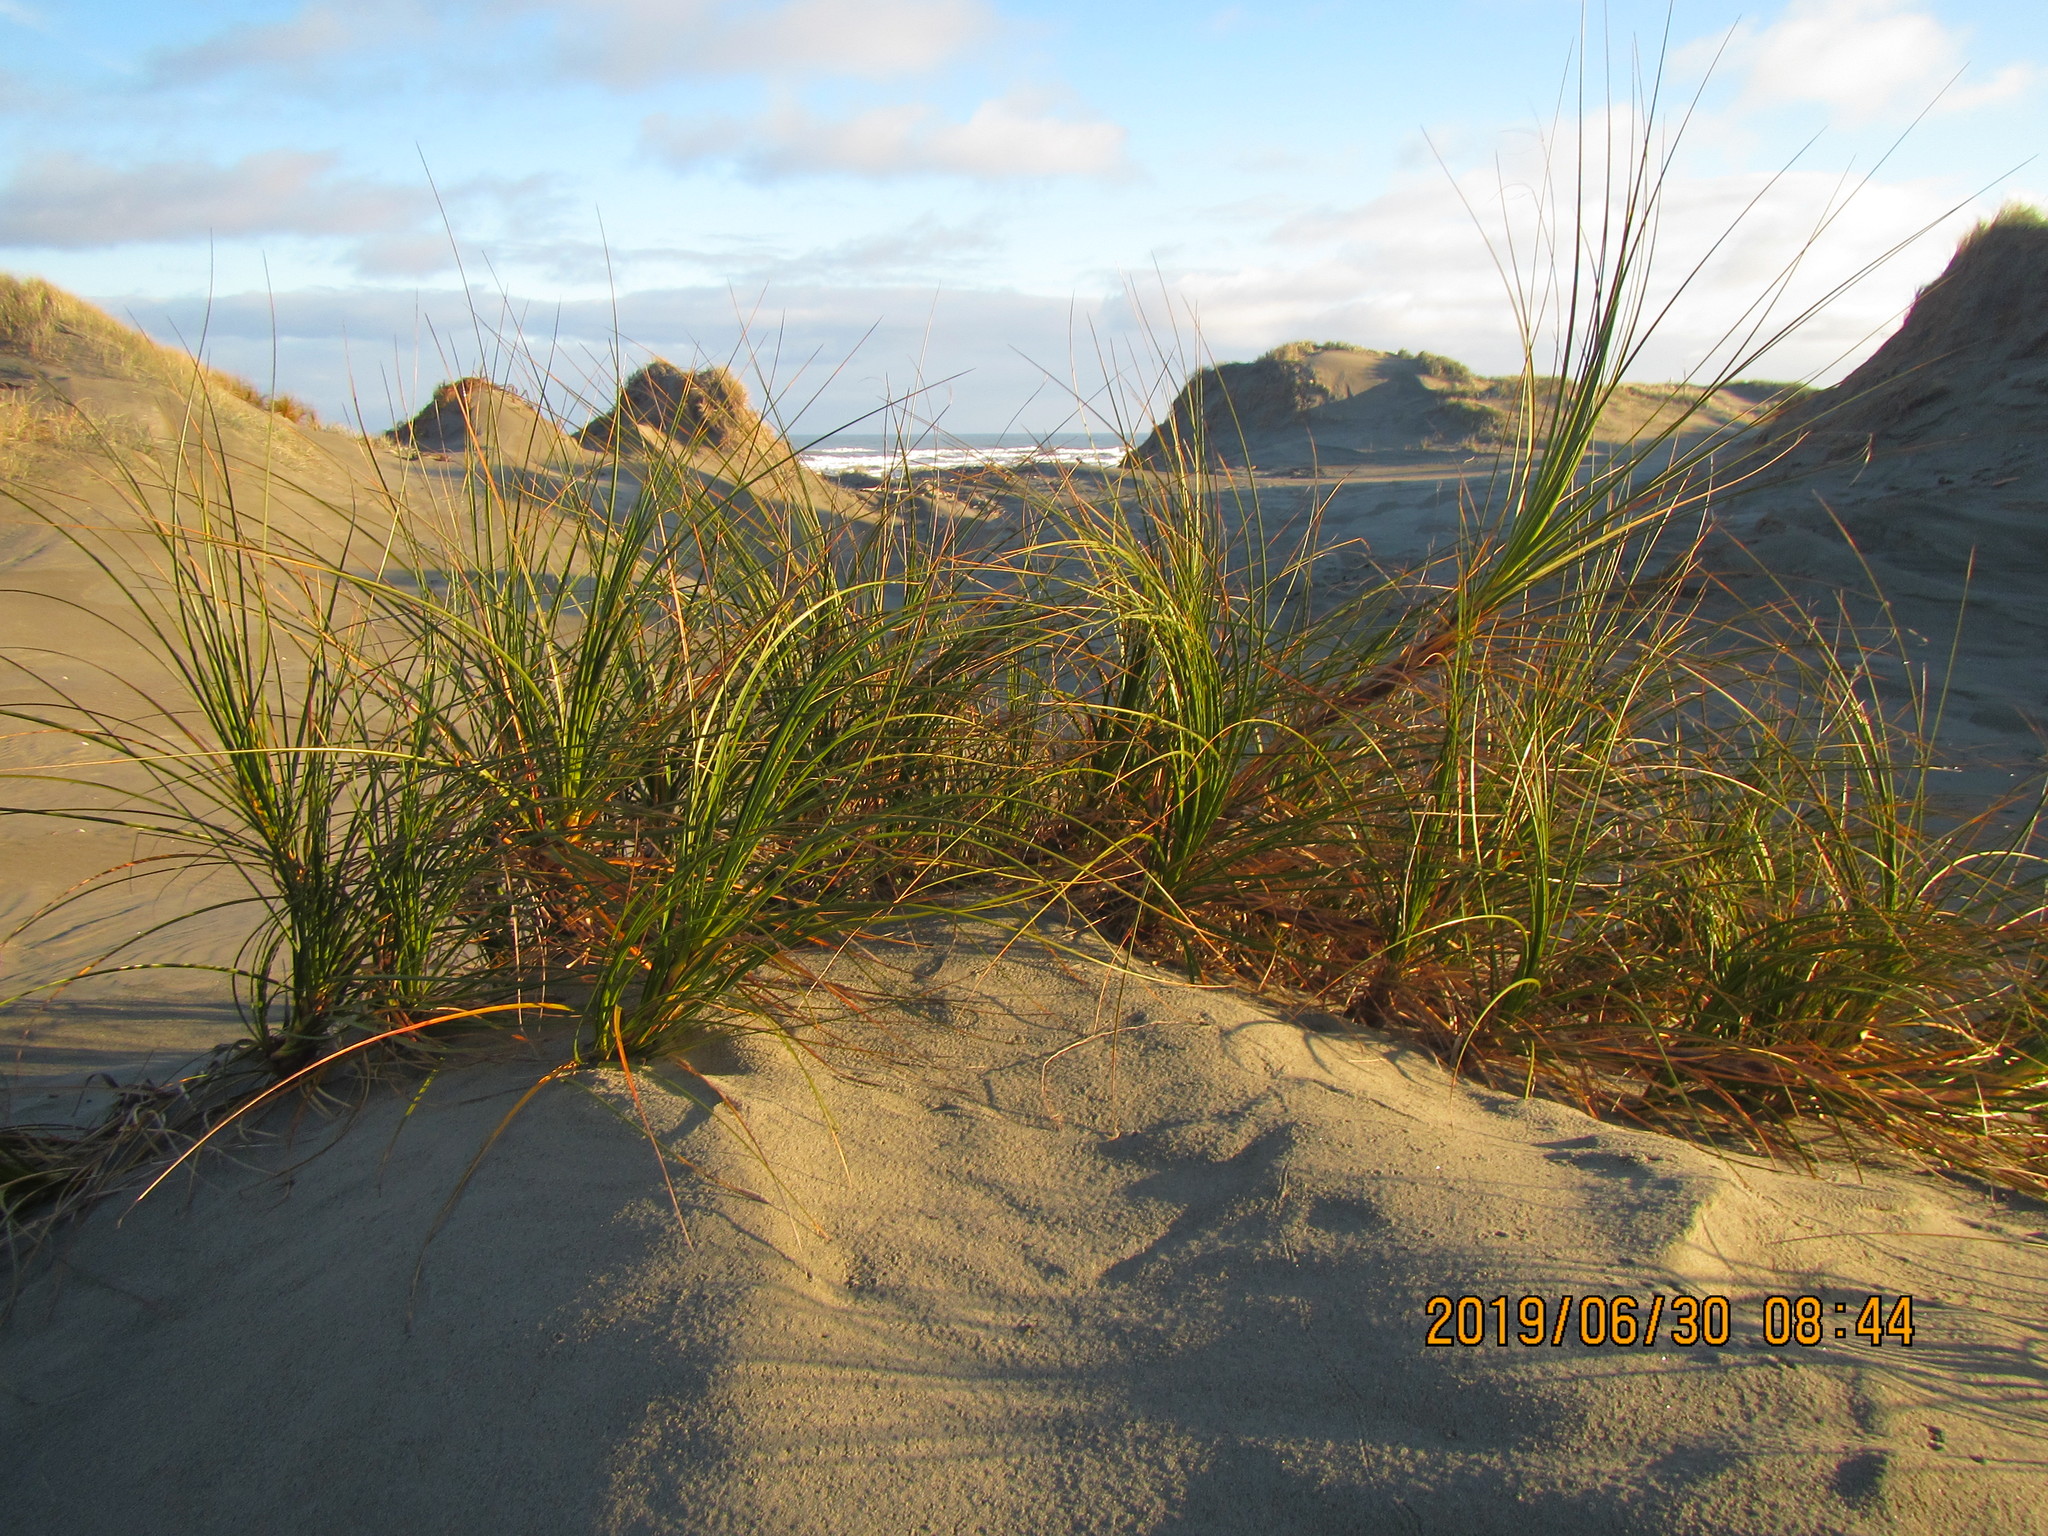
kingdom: Plantae
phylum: Tracheophyta
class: Liliopsida
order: Poales
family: Cyperaceae
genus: Ficinia
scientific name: Ficinia spiralis
